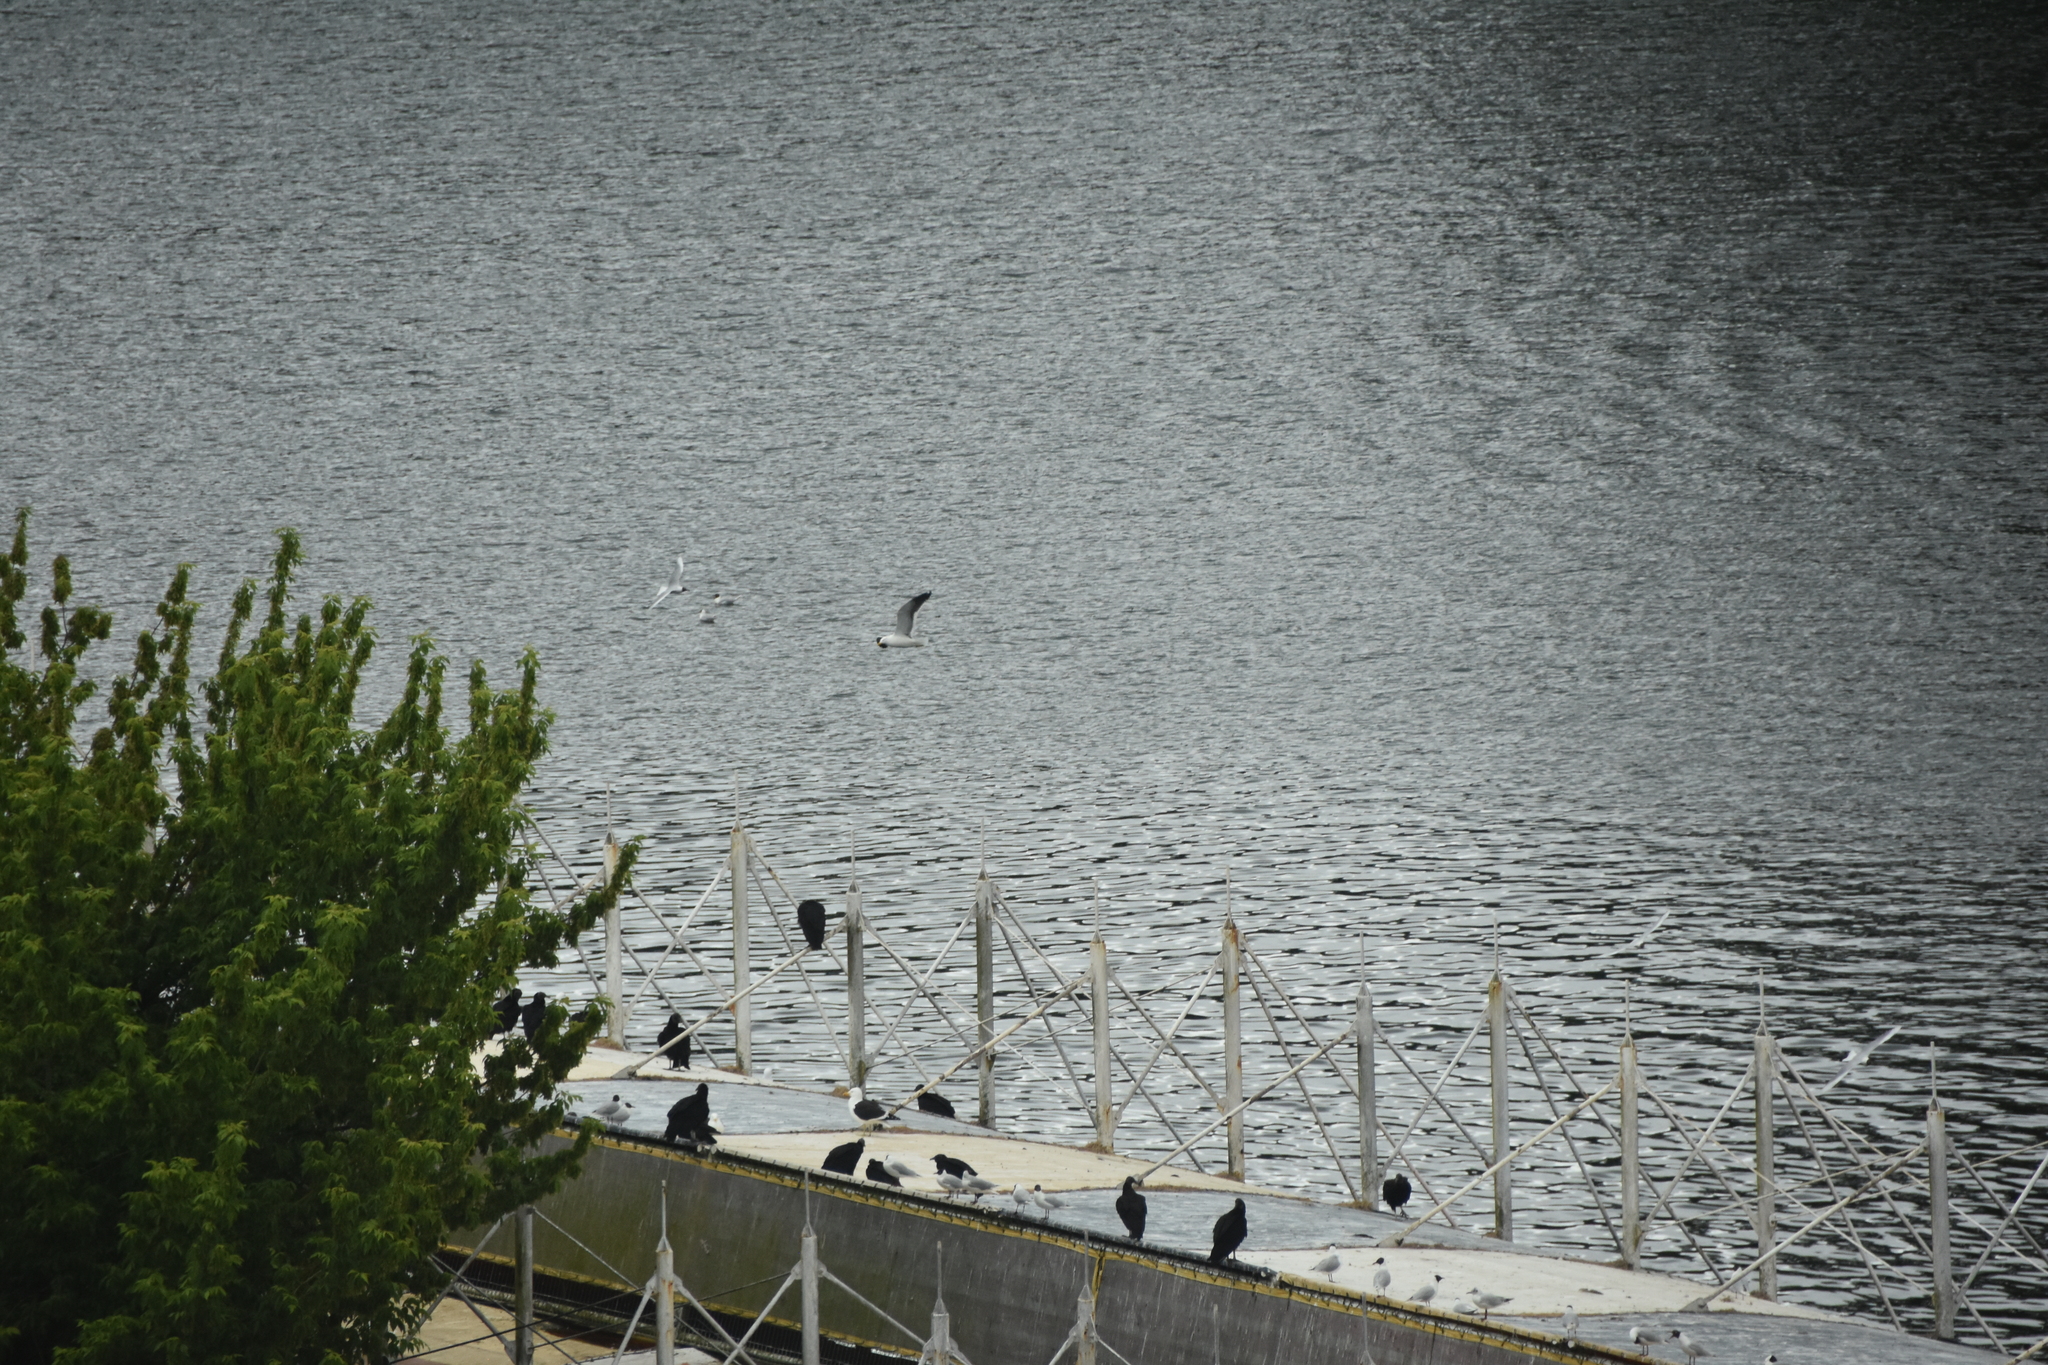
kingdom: Animalia
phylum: Chordata
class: Aves
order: Charadriiformes
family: Laridae
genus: Larus
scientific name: Larus dominicanus
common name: Kelp gull
